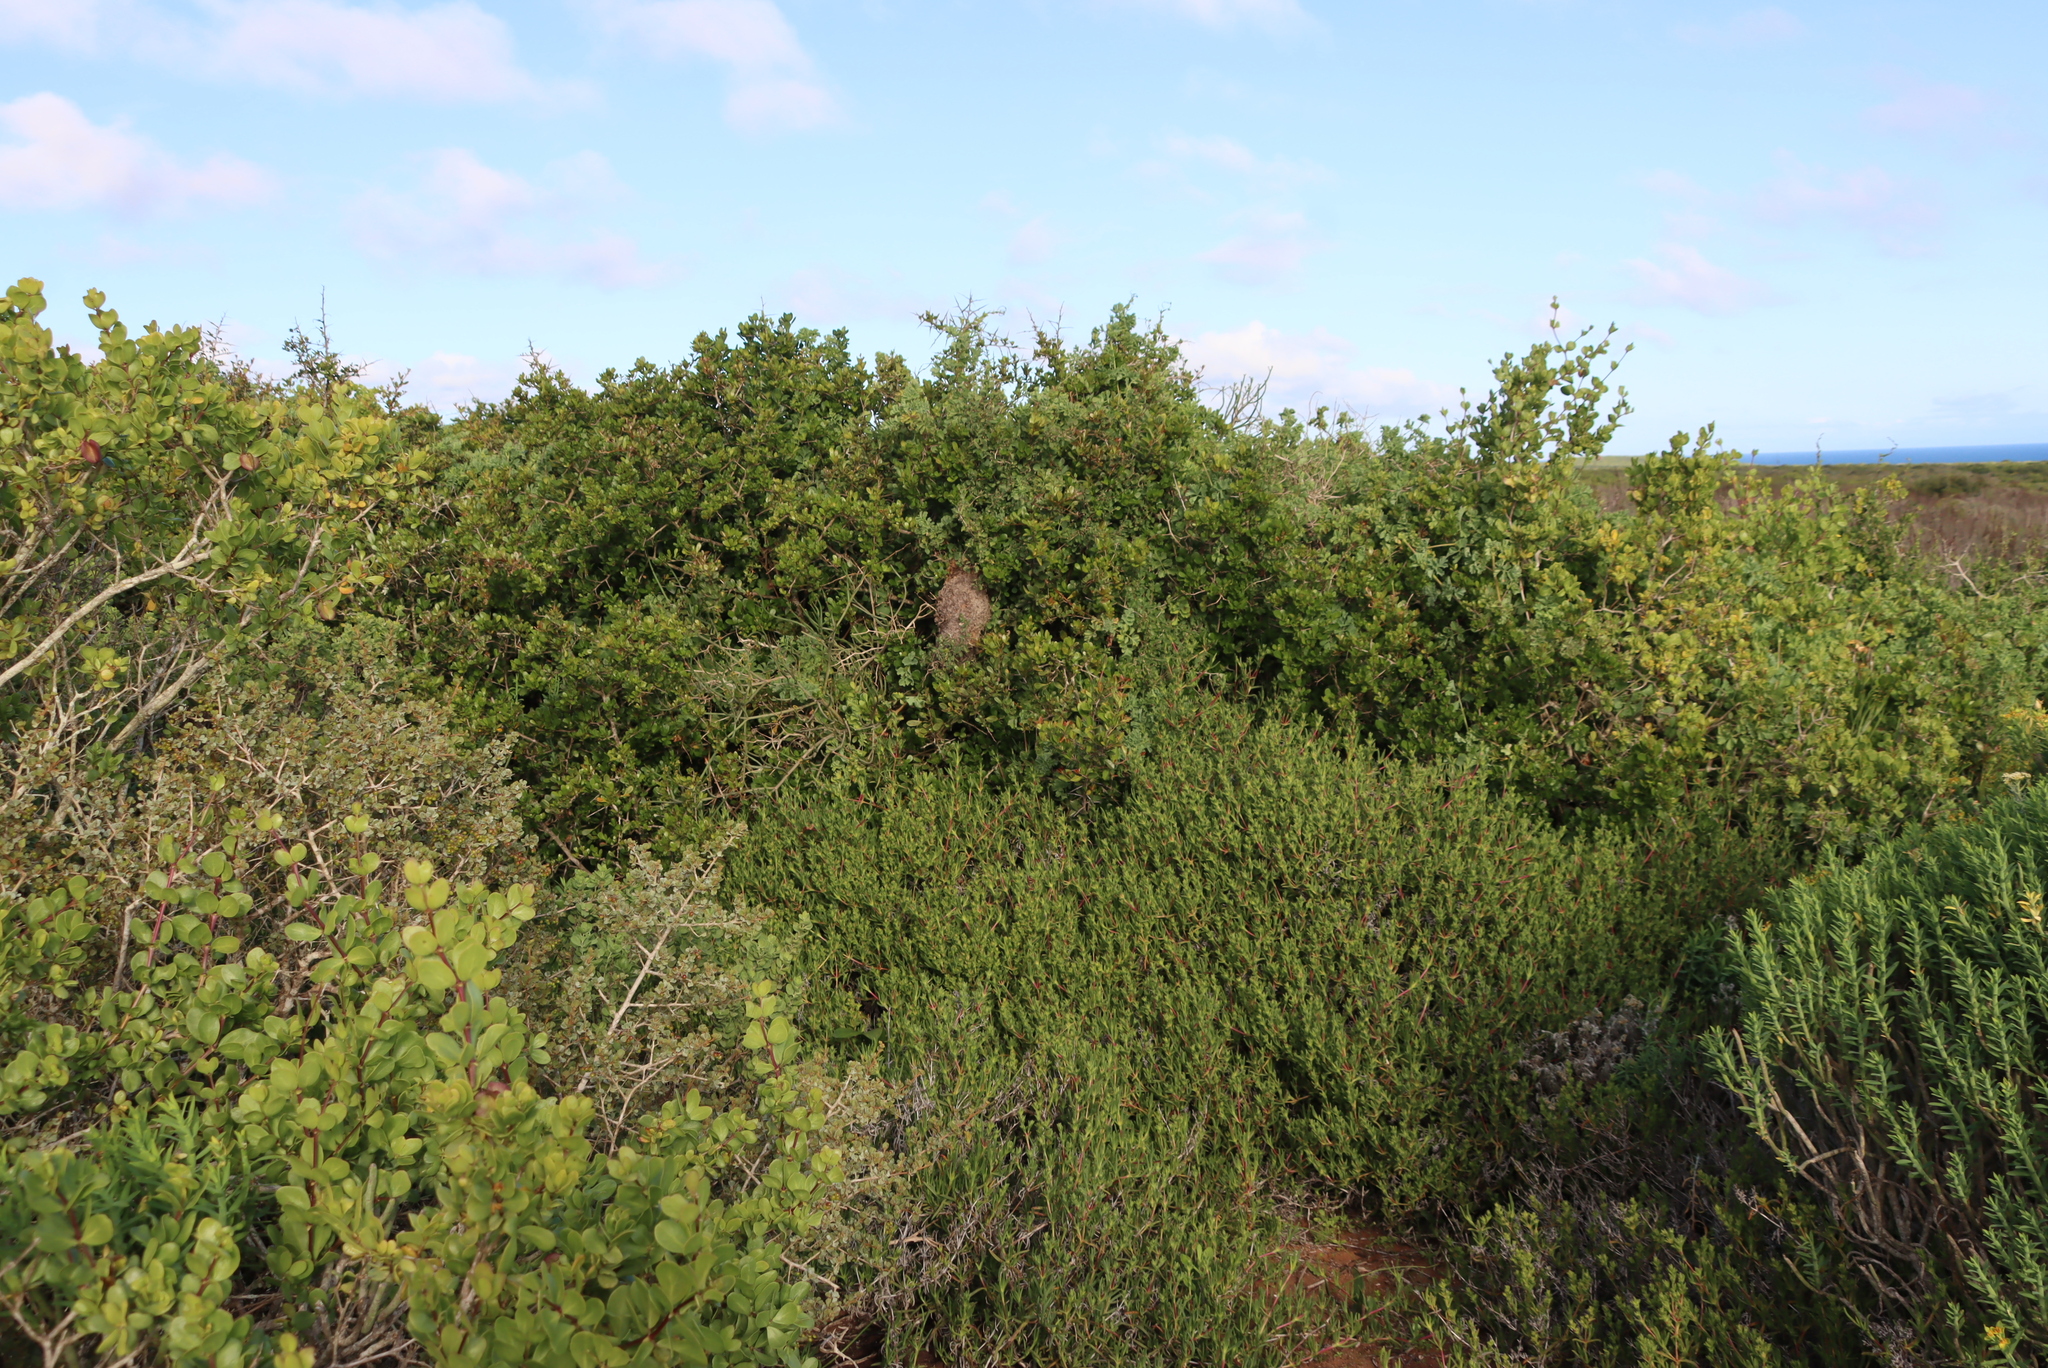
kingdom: Plantae
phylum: Tracheophyta
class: Magnoliopsida
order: Sapindales
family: Anacardiaceae
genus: Searsia
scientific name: Searsia glauca
